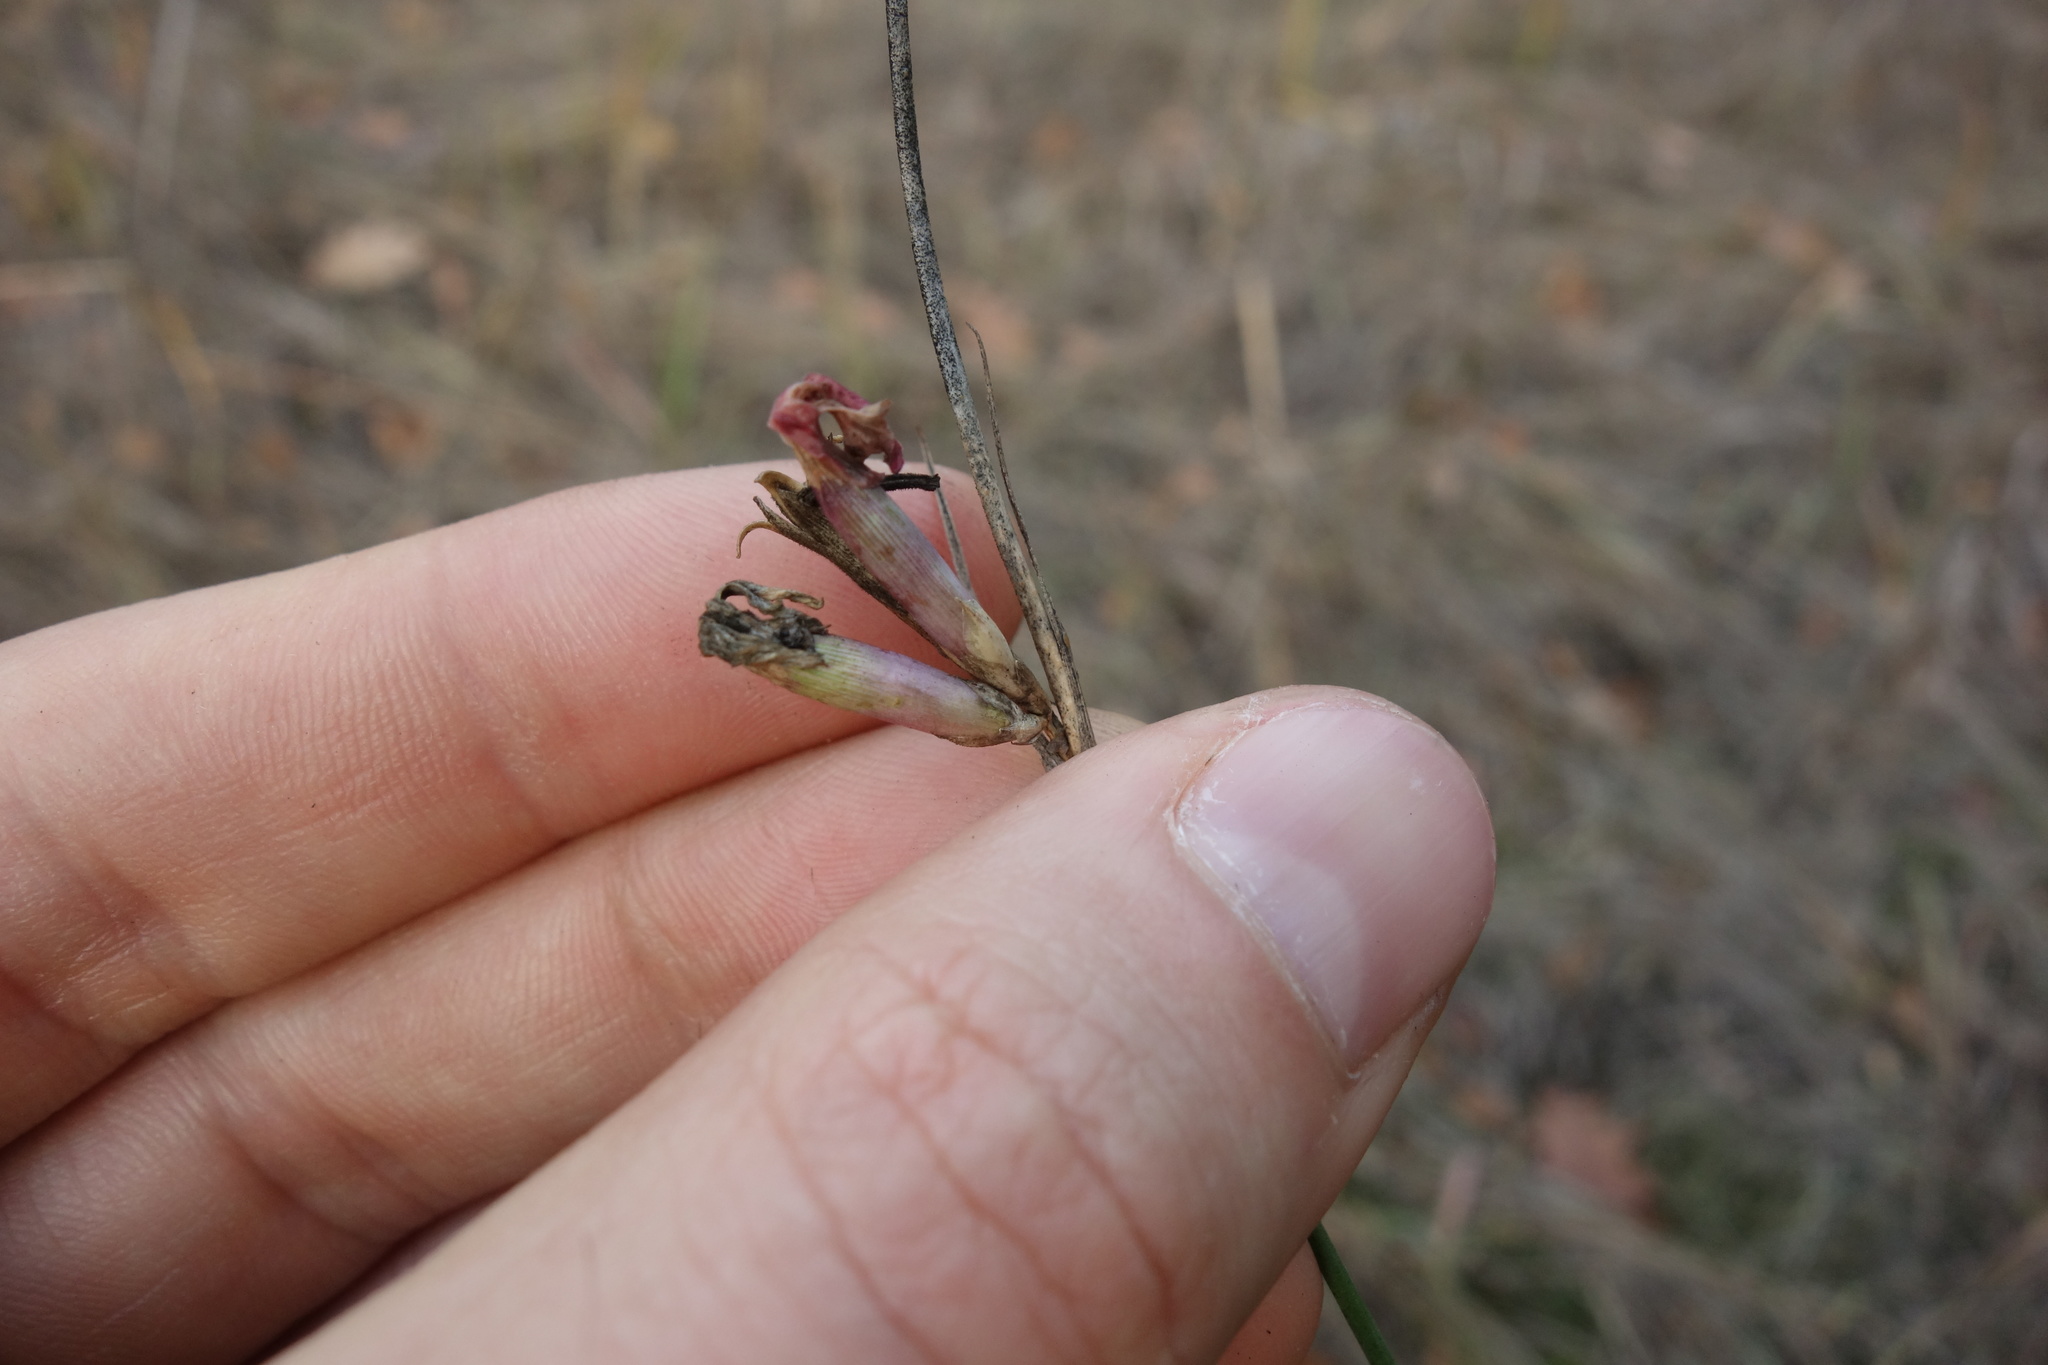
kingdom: Plantae
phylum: Tracheophyta
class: Magnoliopsida
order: Caryophyllales
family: Caryophyllaceae
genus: Dianthus
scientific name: Dianthus borbasii
